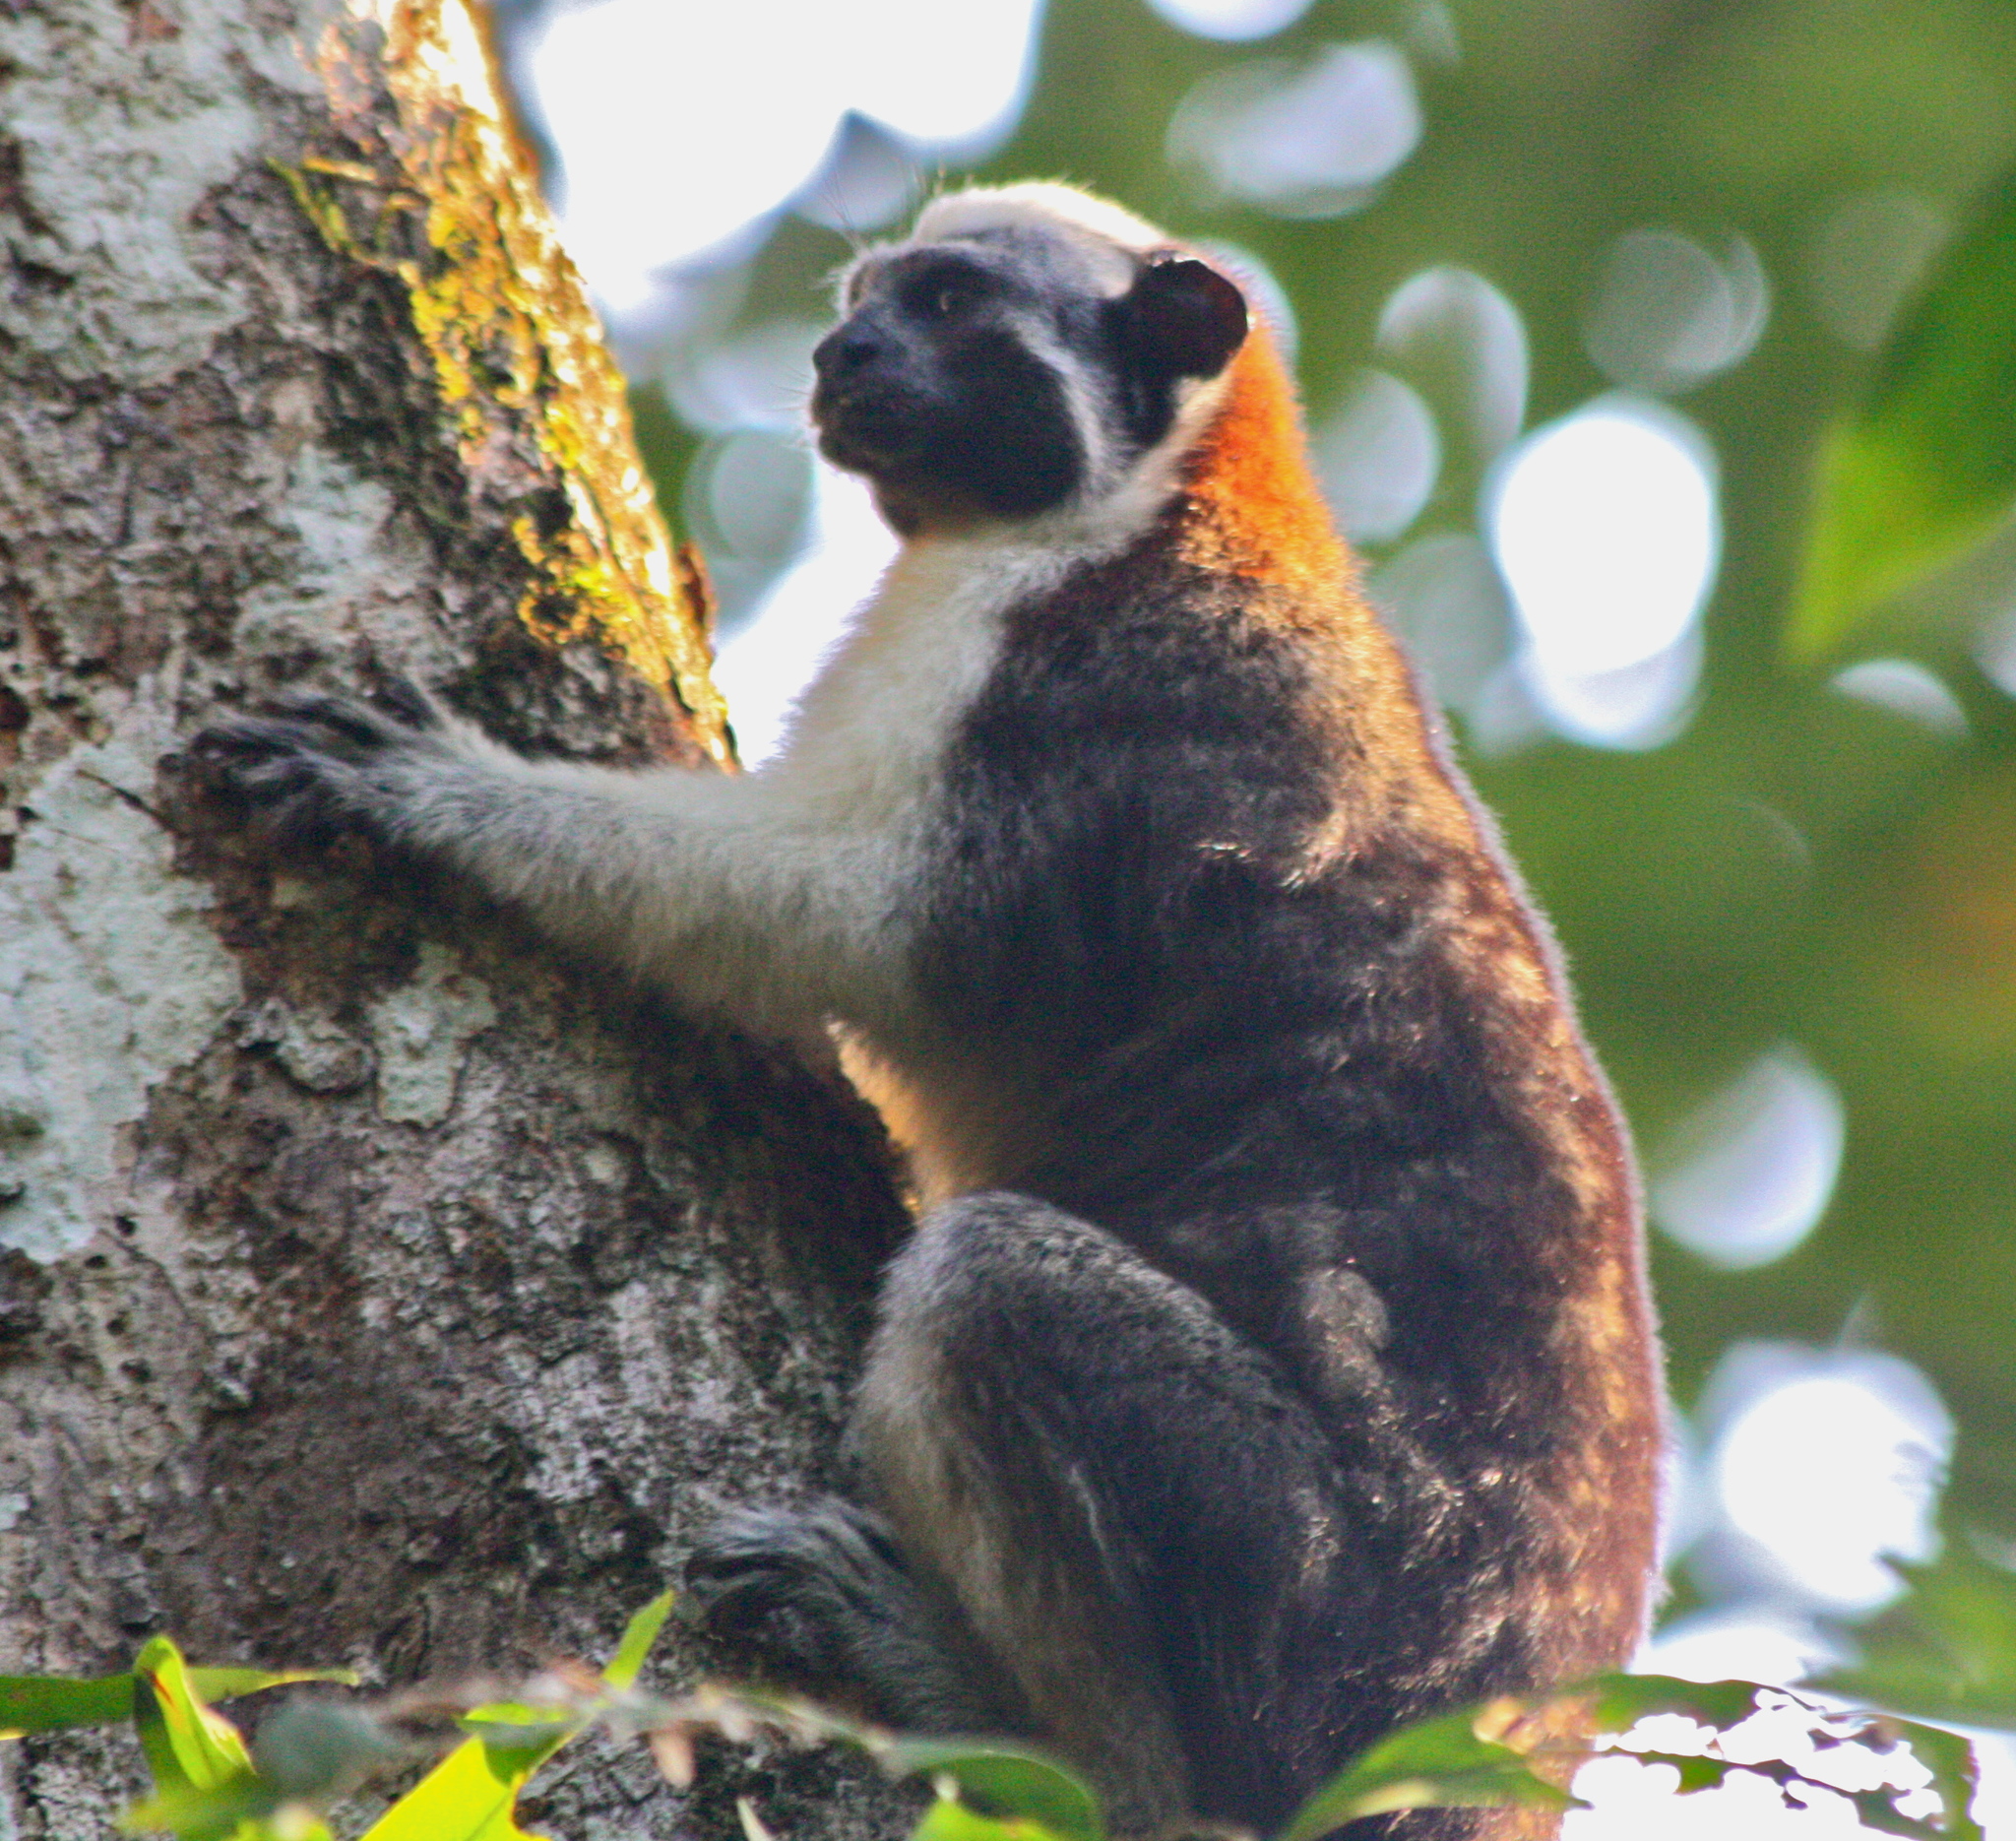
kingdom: Animalia
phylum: Chordata
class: Mammalia
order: Primates
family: Callitrichidae
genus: Saguinus
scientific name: Saguinus geoffroyi
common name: Geoffroy s tamarin
